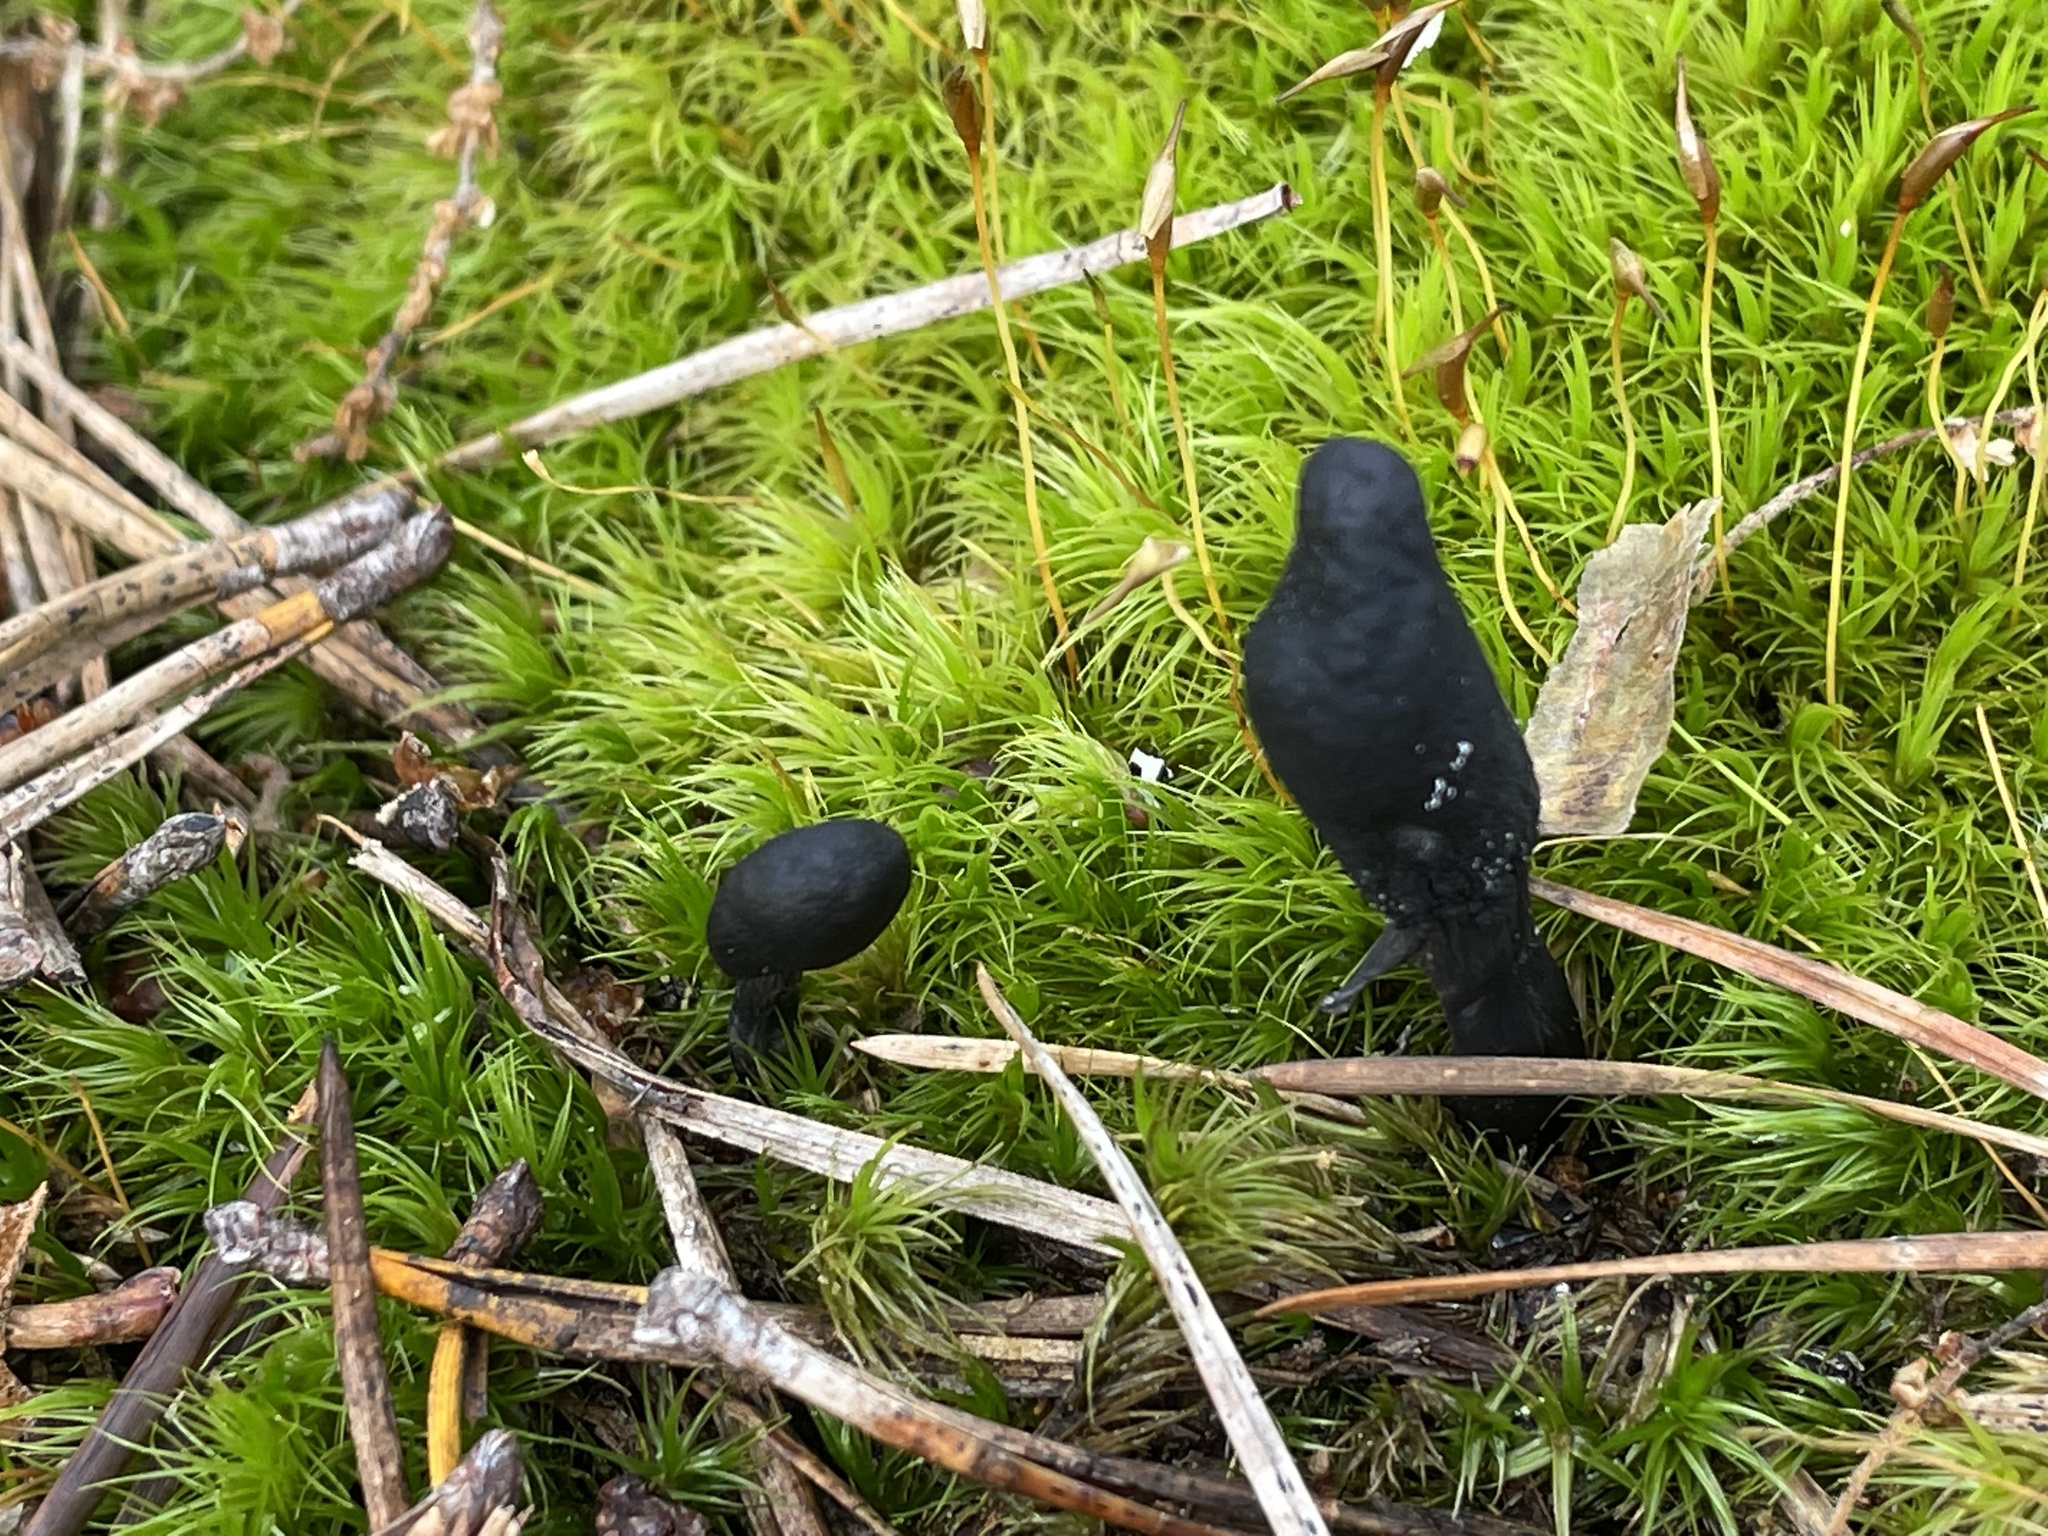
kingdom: Fungi
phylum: Ascomycota
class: Sordariomycetes
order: Hypocreales
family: Ophiocordycipitaceae
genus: Tolypocladium
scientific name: Tolypocladium ophioglossoides
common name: Snaketongue truffleclub
